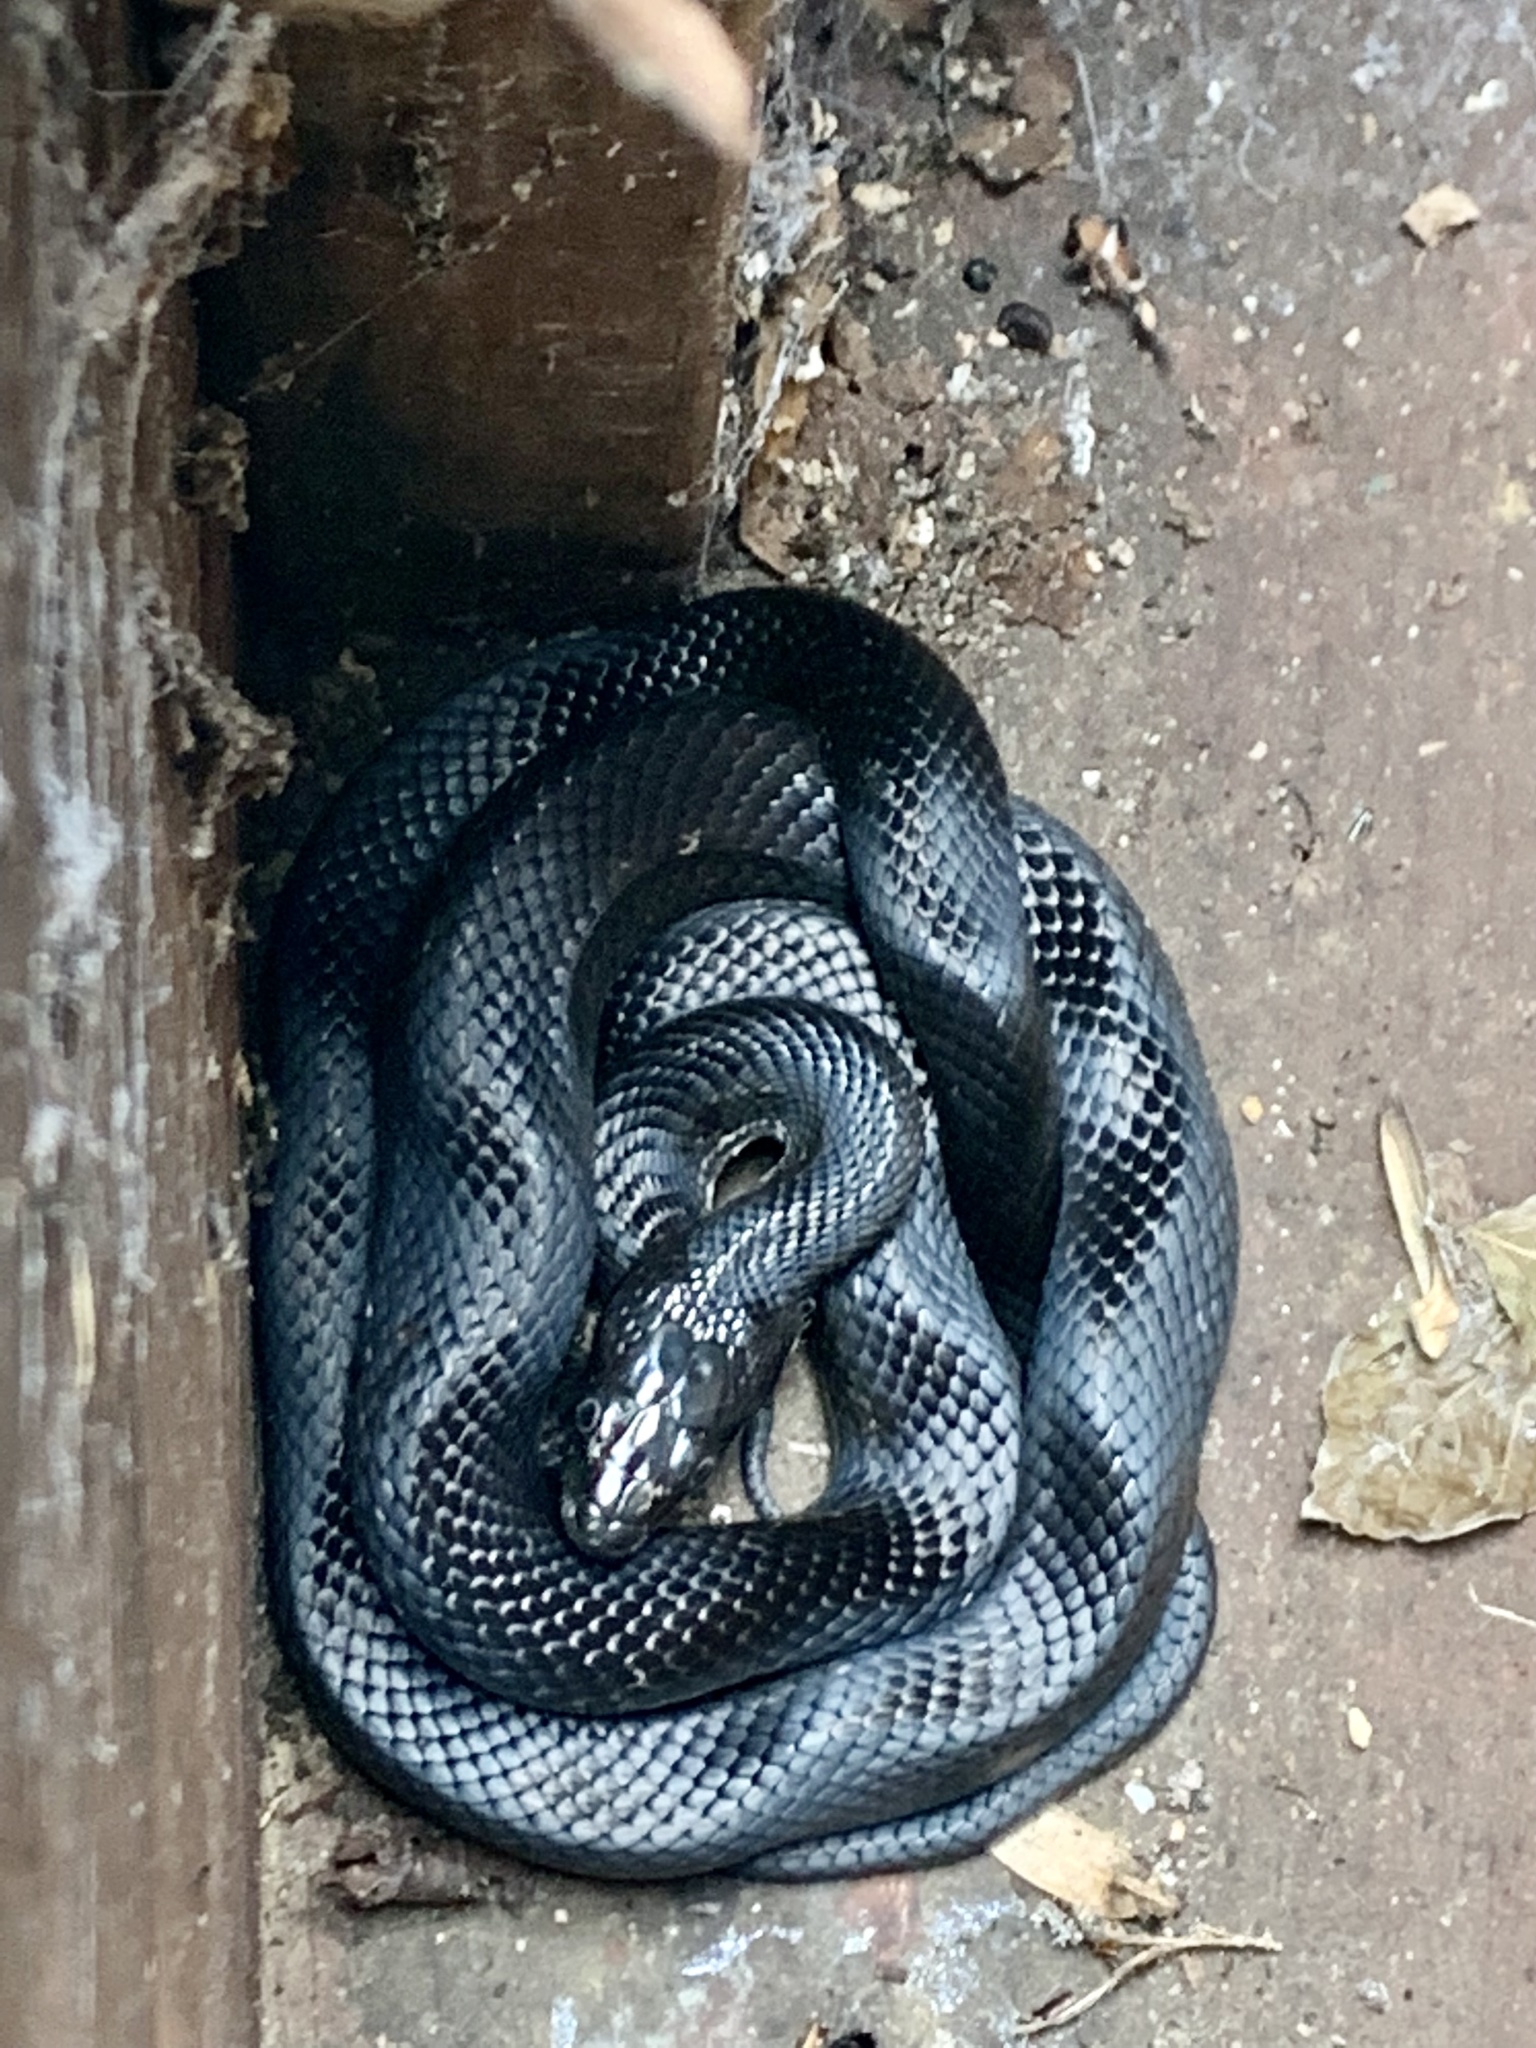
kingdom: Animalia
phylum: Chordata
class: Squamata
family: Colubridae
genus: Pantherophis
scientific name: Pantherophis alleghaniensis
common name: Eastern rat snake
